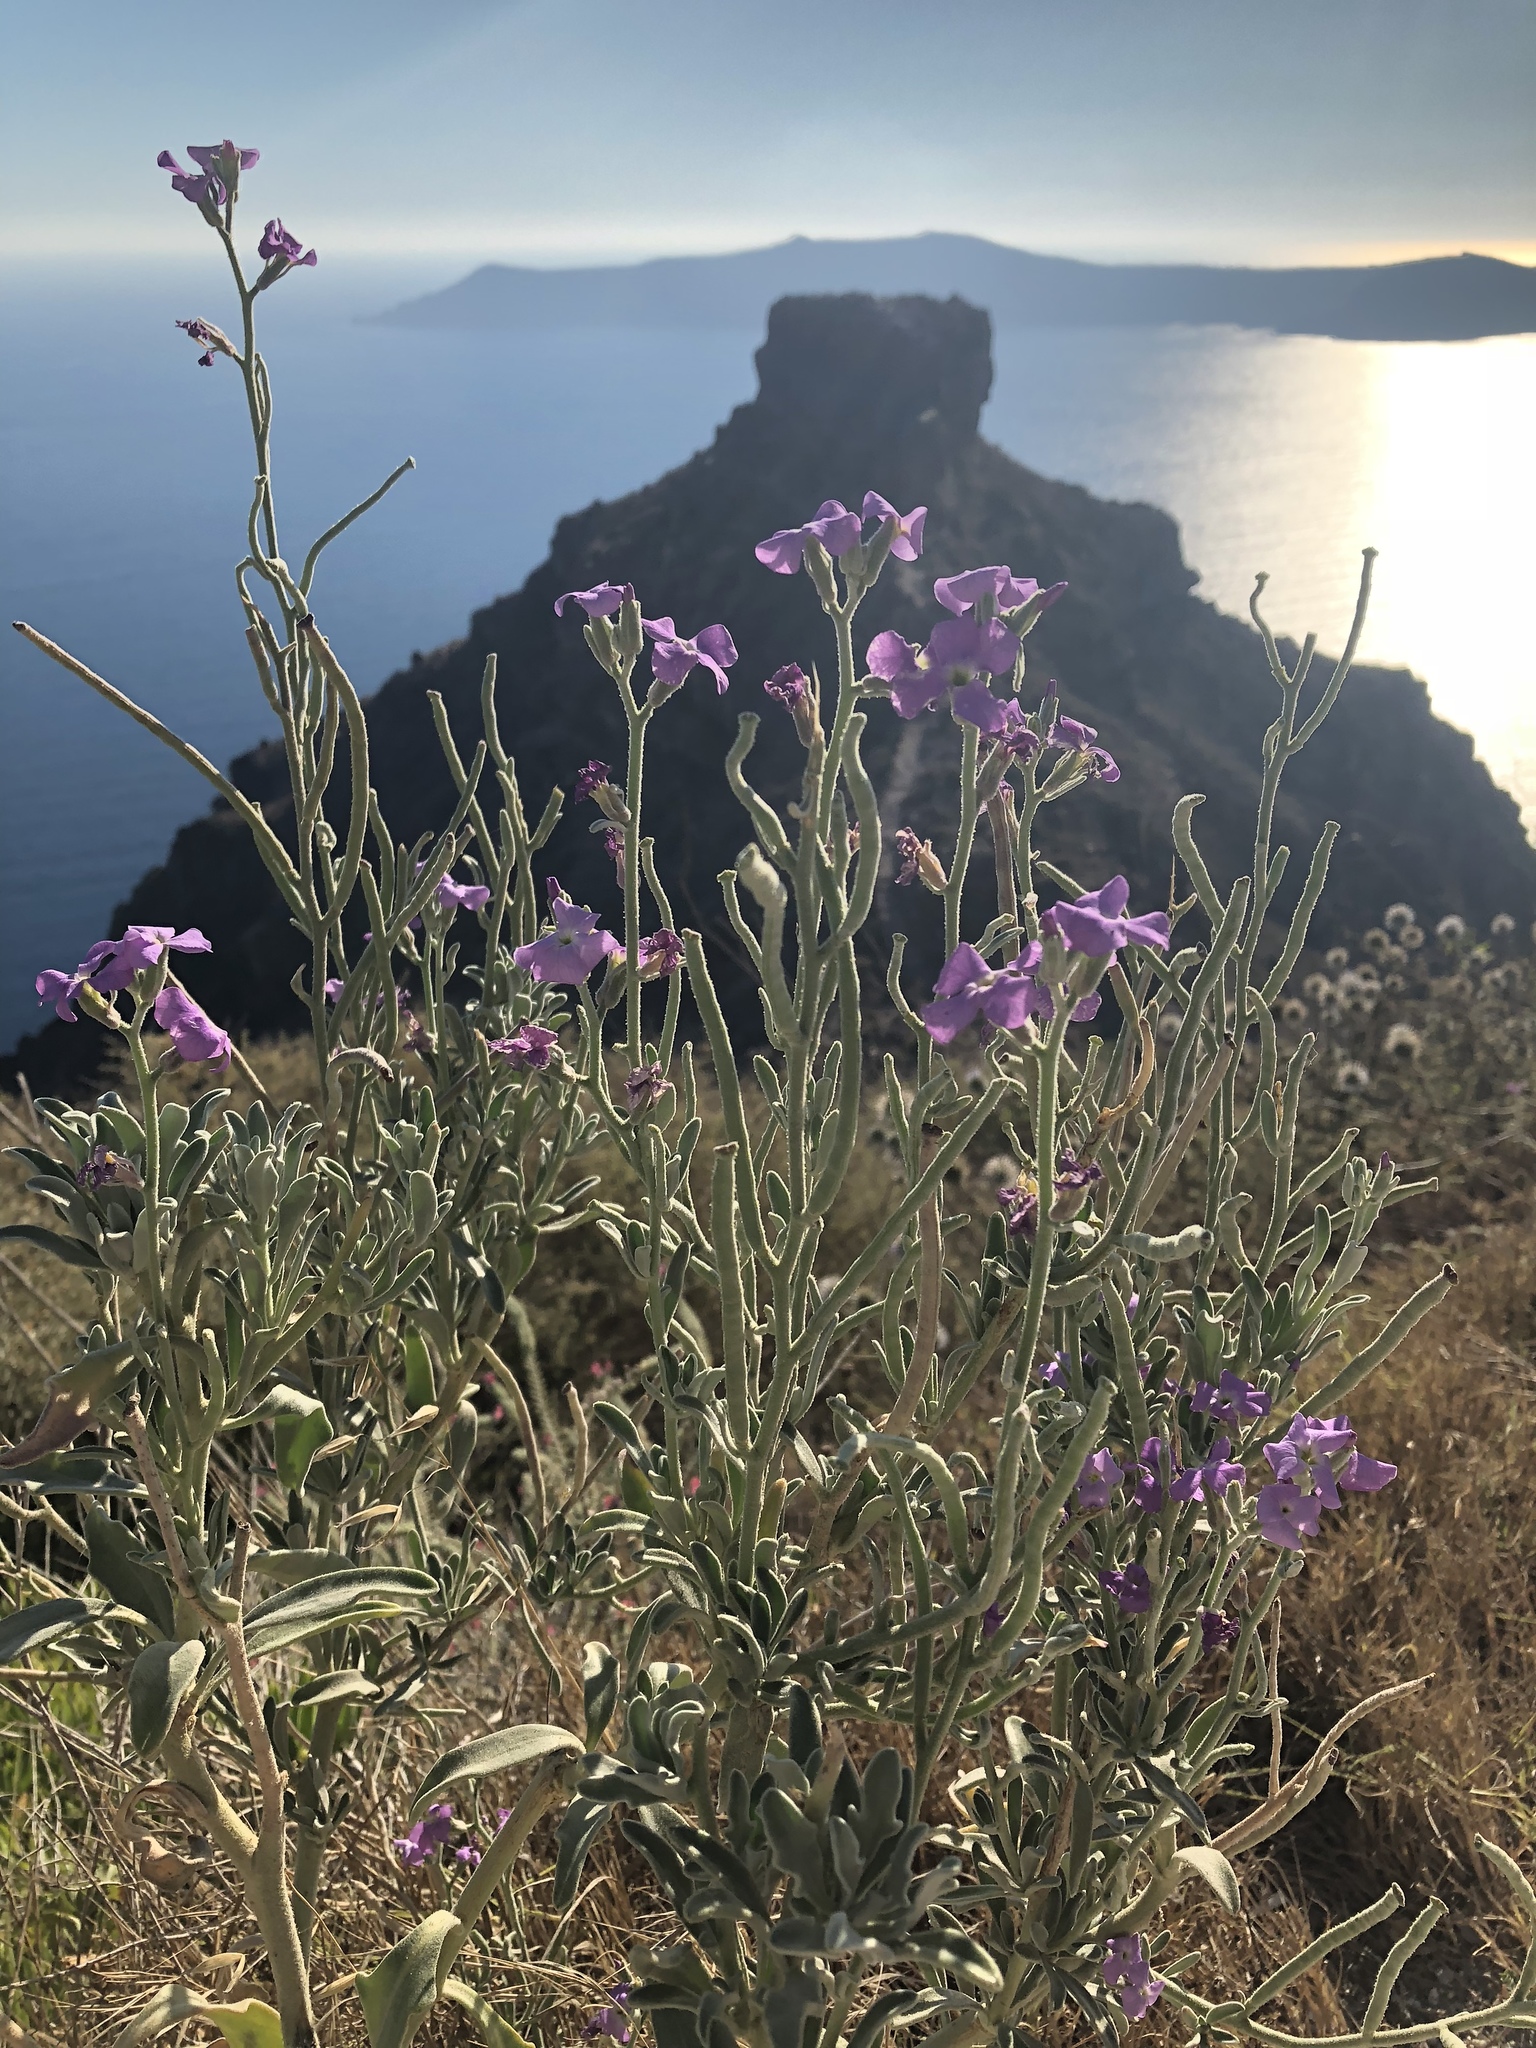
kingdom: Plantae
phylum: Tracheophyta
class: Magnoliopsida
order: Brassicales
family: Brassicaceae
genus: Matthiola
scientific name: Matthiola sinuata
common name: Sea stock
